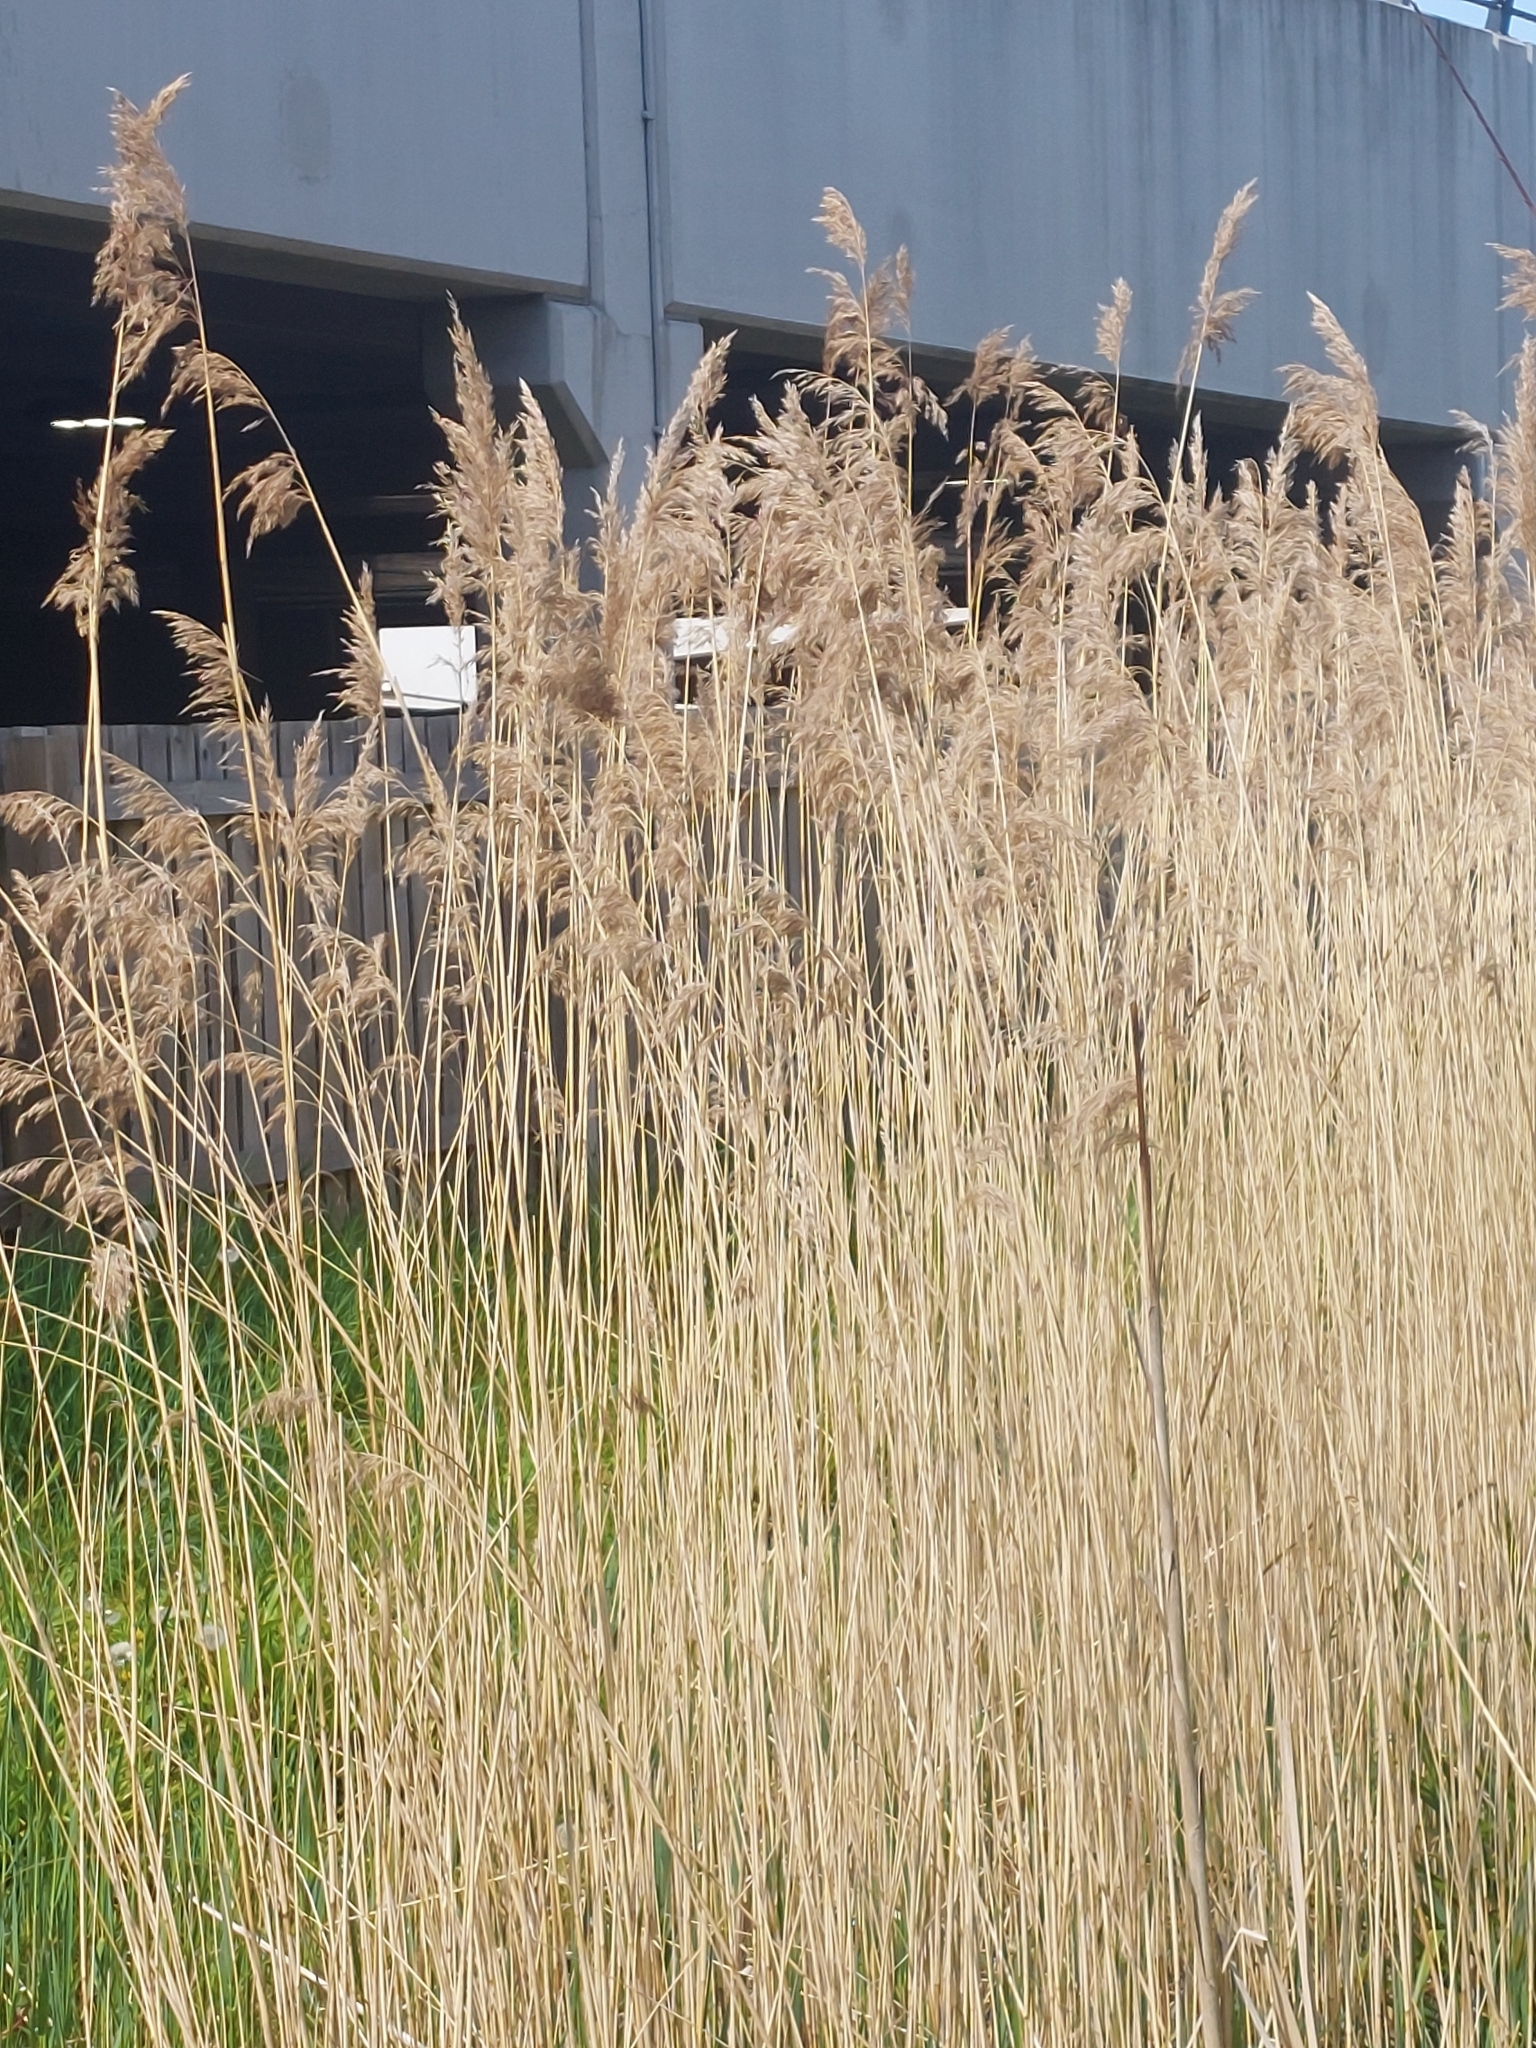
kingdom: Plantae
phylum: Tracheophyta
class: Liliopsida
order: Poales
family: Poaceae
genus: Phragmites
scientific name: Phragmites australis
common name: Common reed
